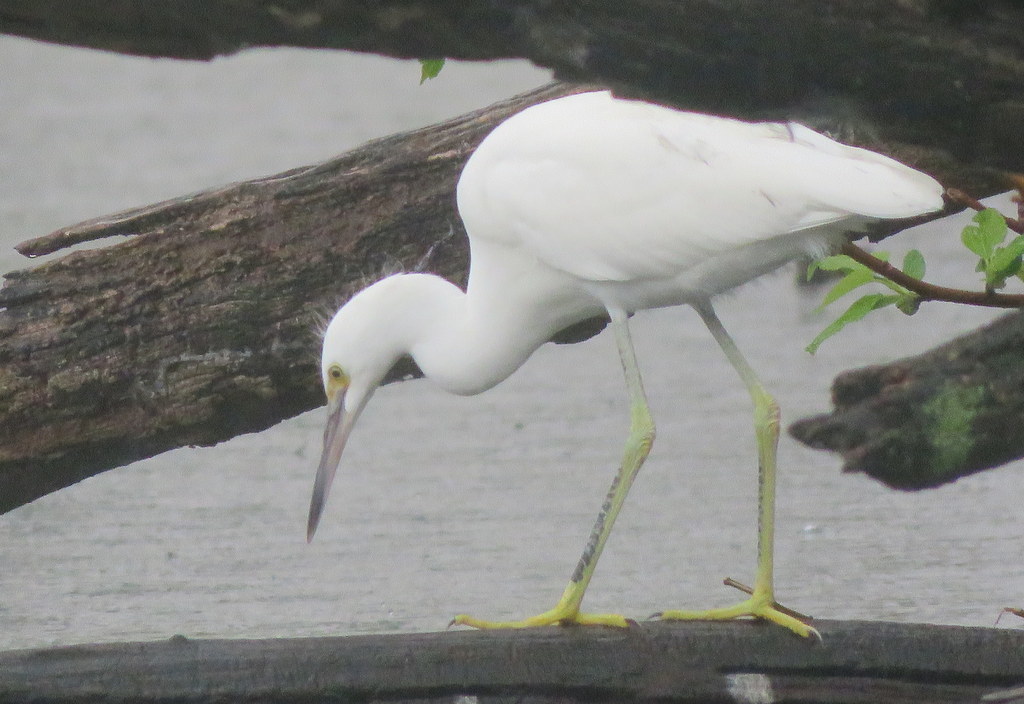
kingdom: Animalia
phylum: Chordata
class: Aves
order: Pelecaniformes
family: Ardeidae
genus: Egretta
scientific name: Egretta thula
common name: Snowy egret
